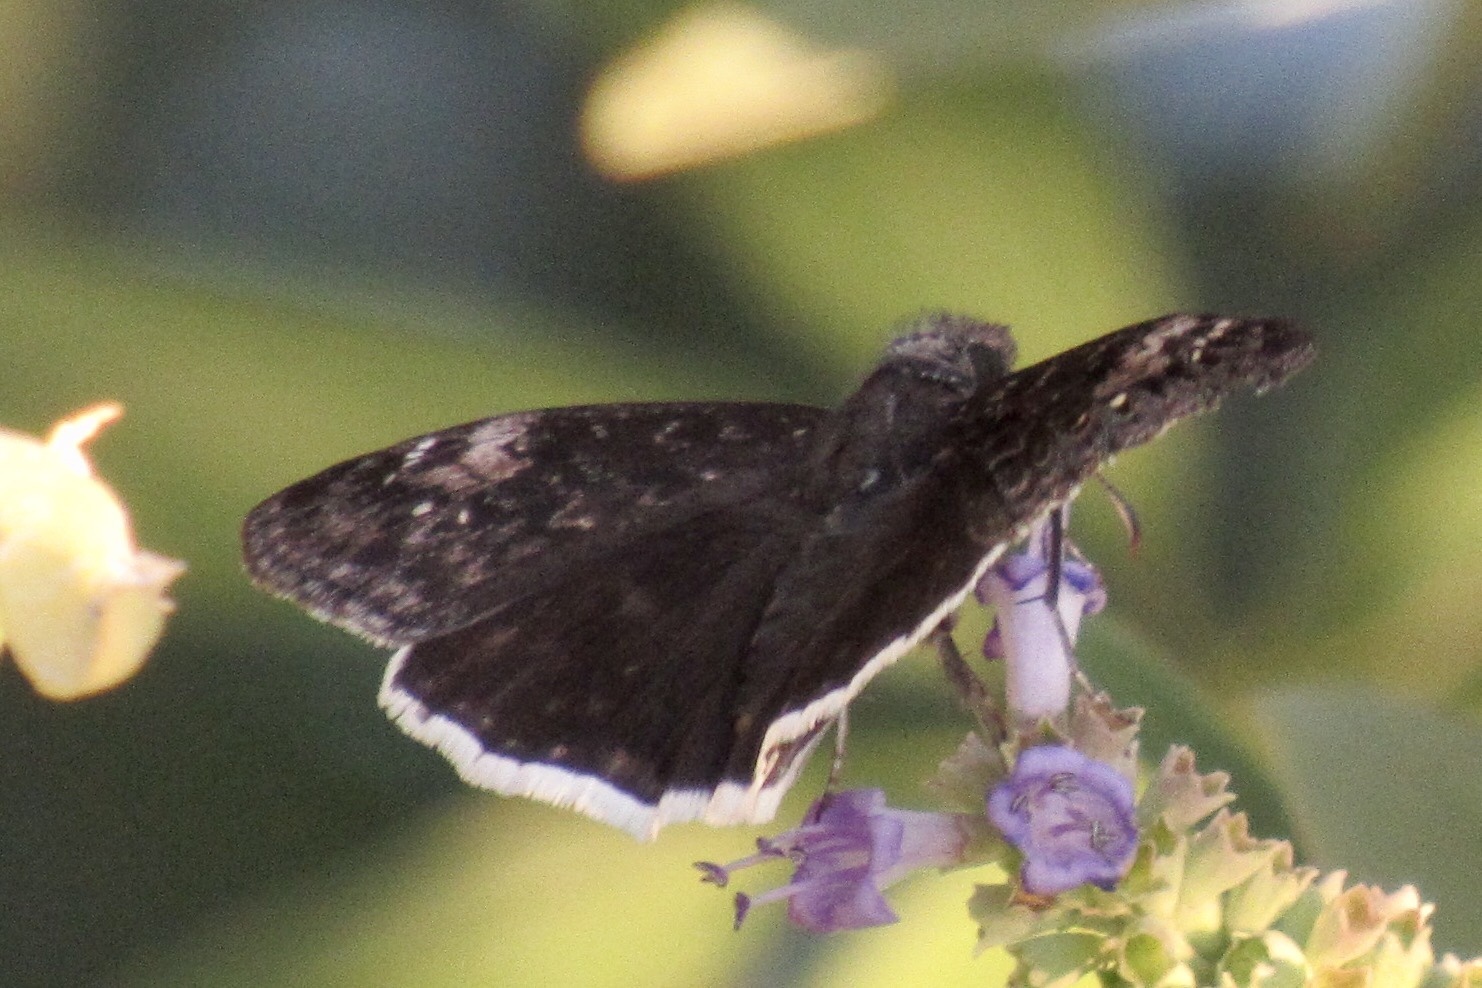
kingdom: Animalia
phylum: Arthropoda
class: Insecta
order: Lepidoptera
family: Hesperiidae
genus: Erynnis
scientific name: Erynnis funeralis
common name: Funereal duskywing
